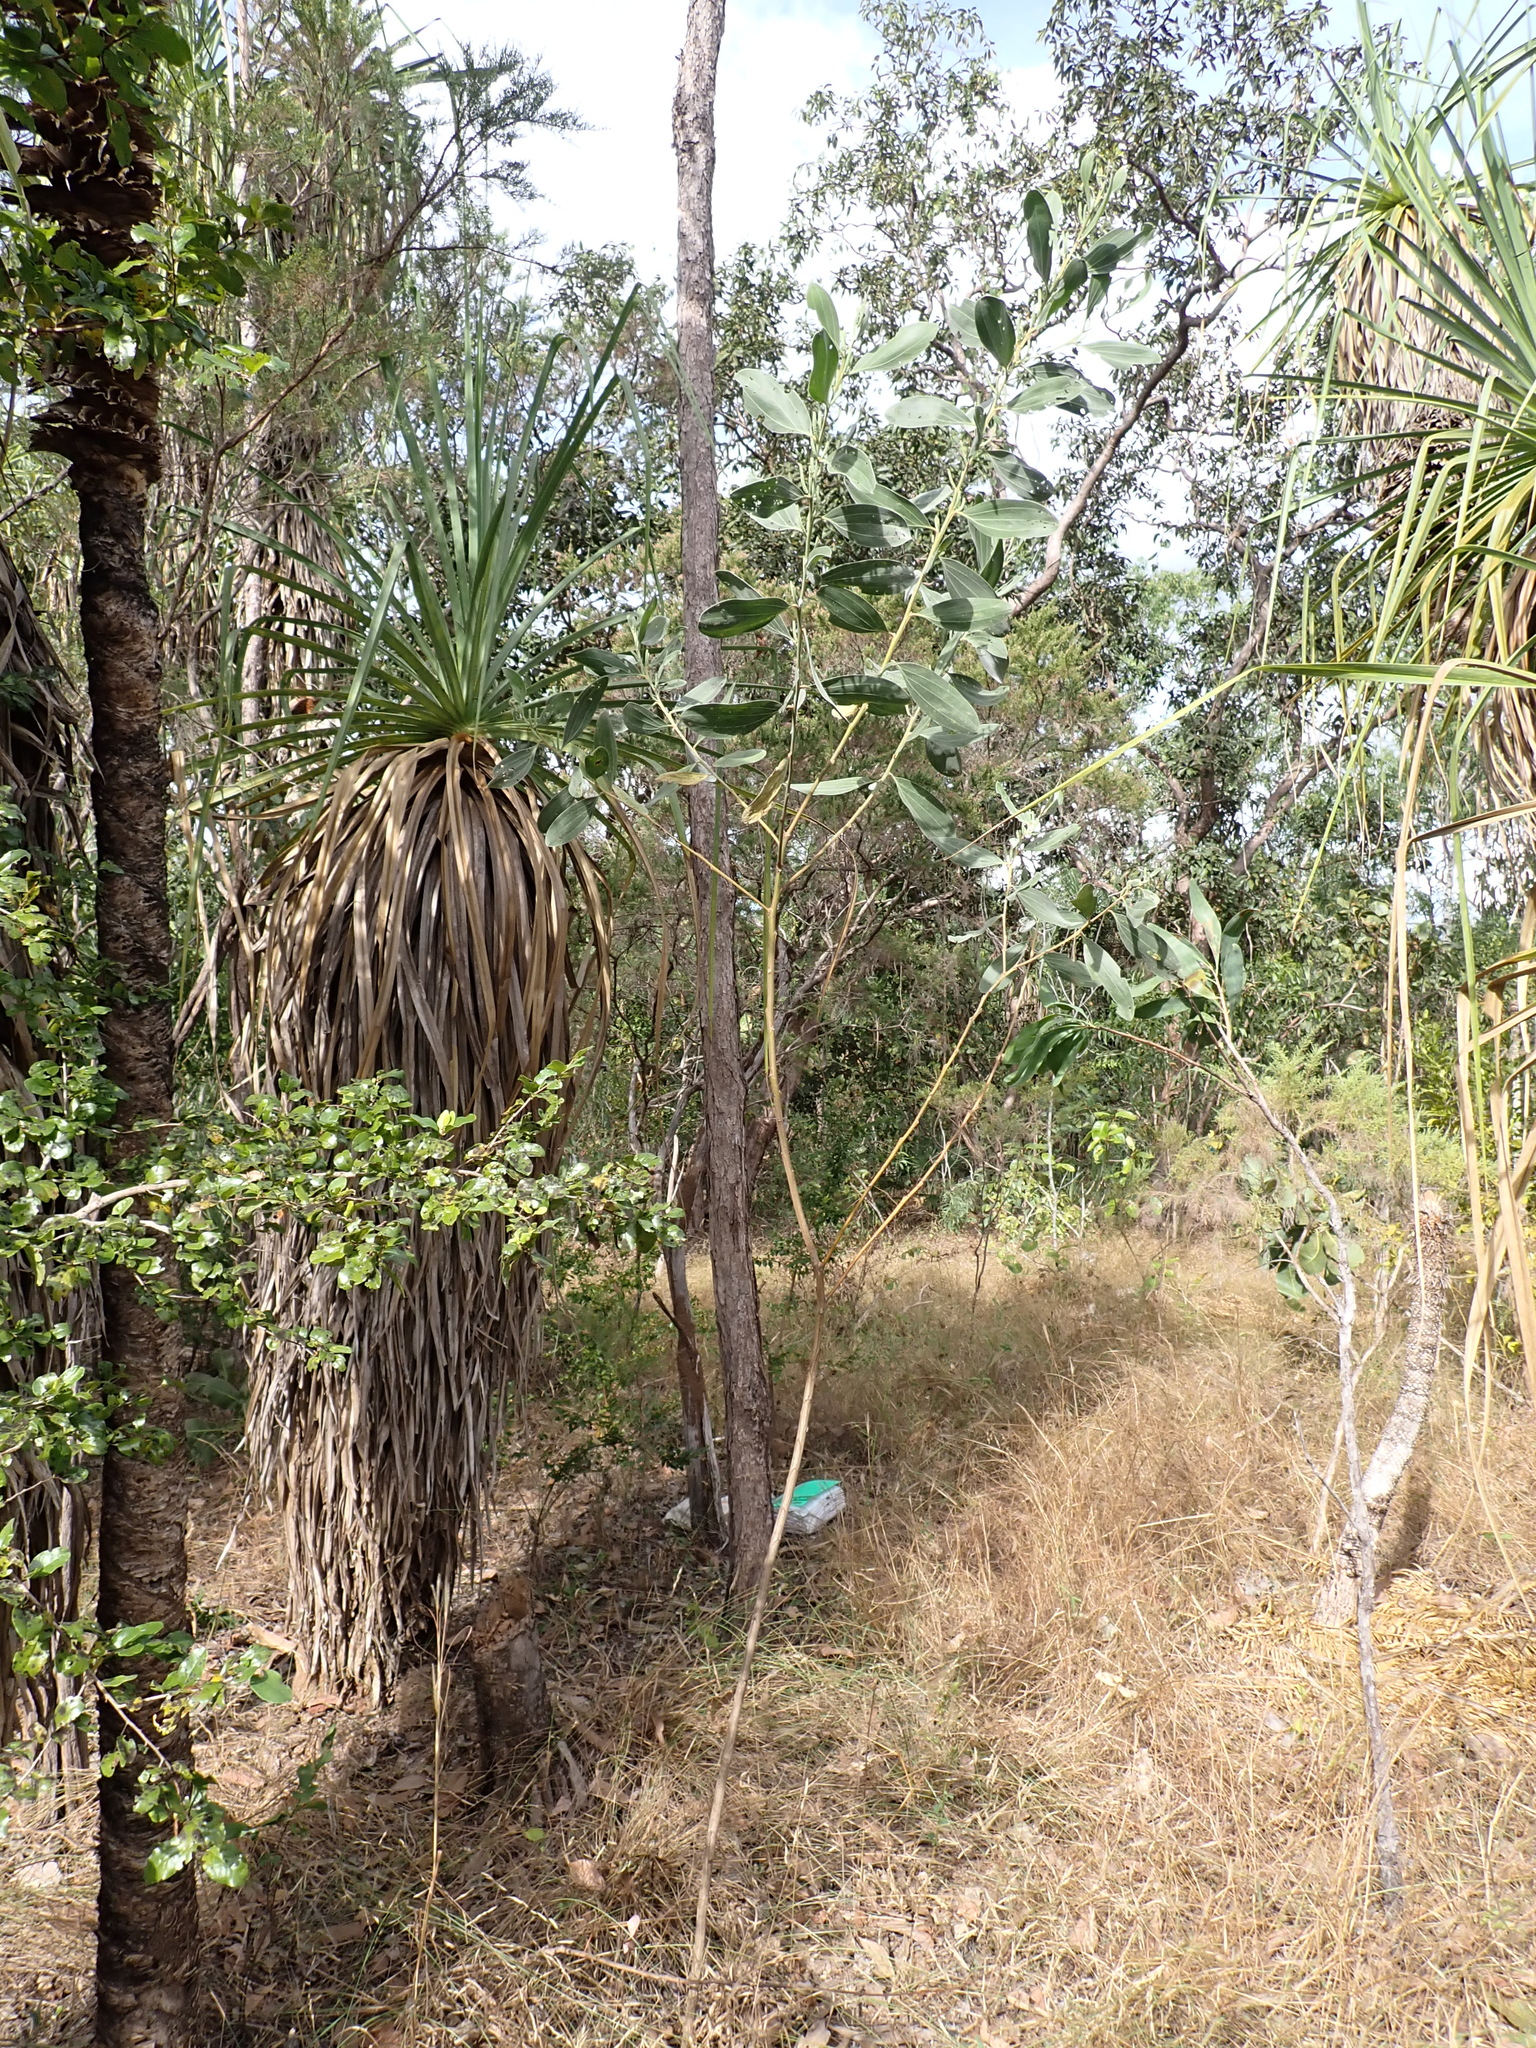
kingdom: Plantae
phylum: Tracheophyta
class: Magnoliopsida
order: Fabales
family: Fabaceae
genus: Acacia
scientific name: Acacia holosericea
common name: Candelabra wattle
